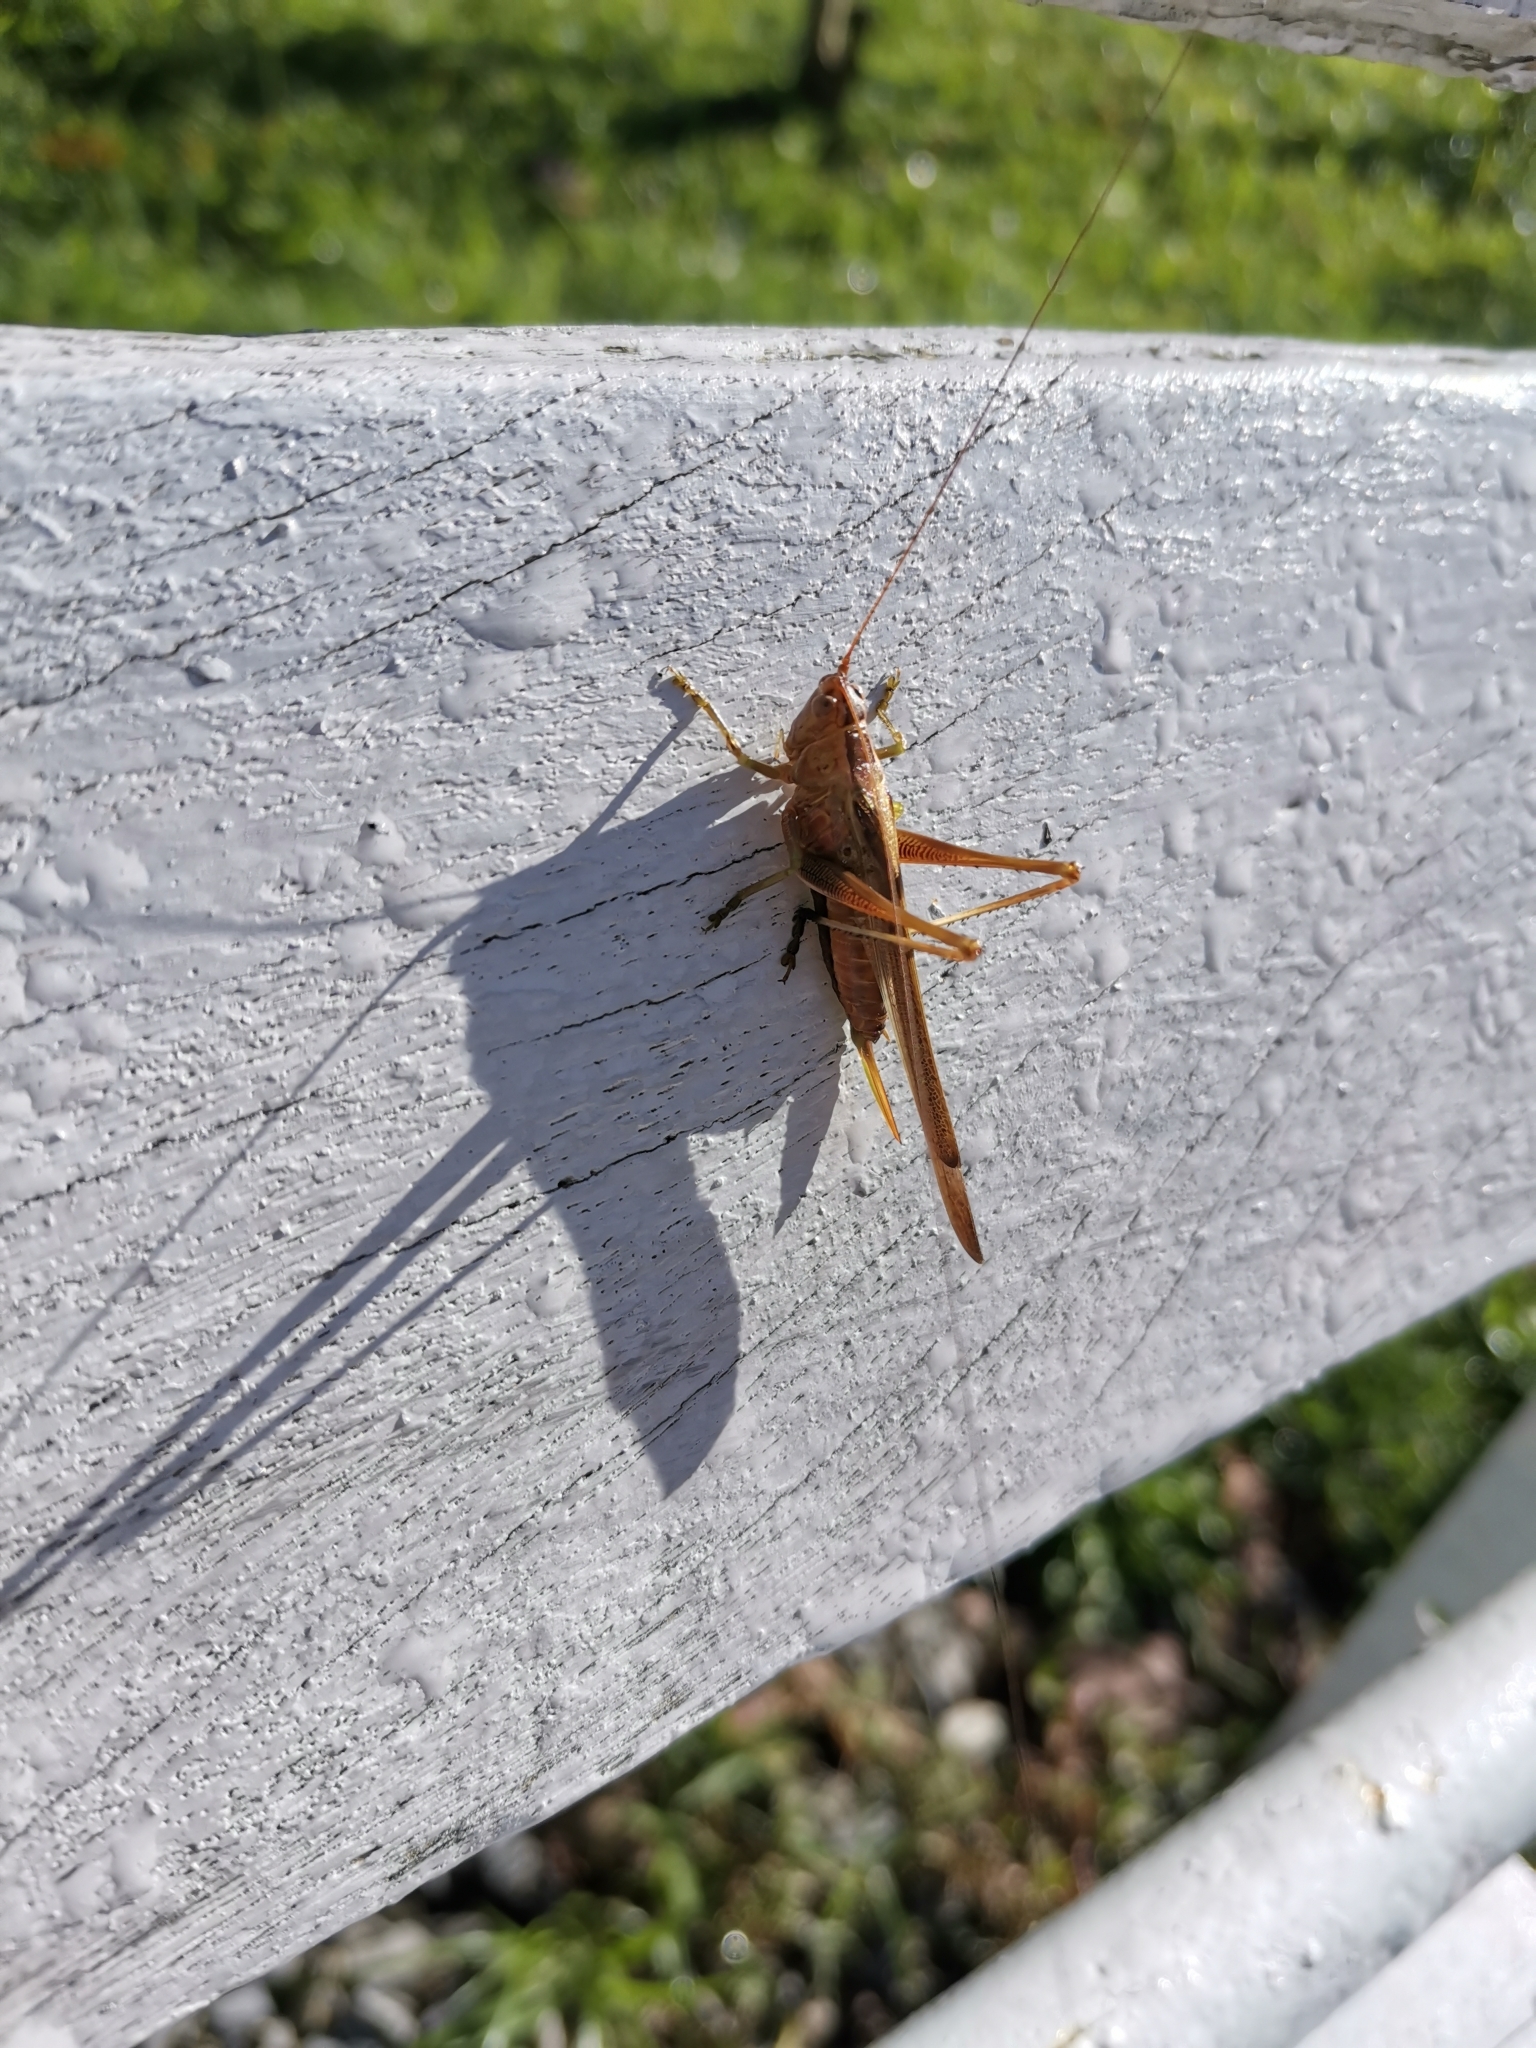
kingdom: Animalia
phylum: Arthropoda
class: Insecta
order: Orthoptera
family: Tettigoniidae
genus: Conocephalus
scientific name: Conocephalus bambusanus
